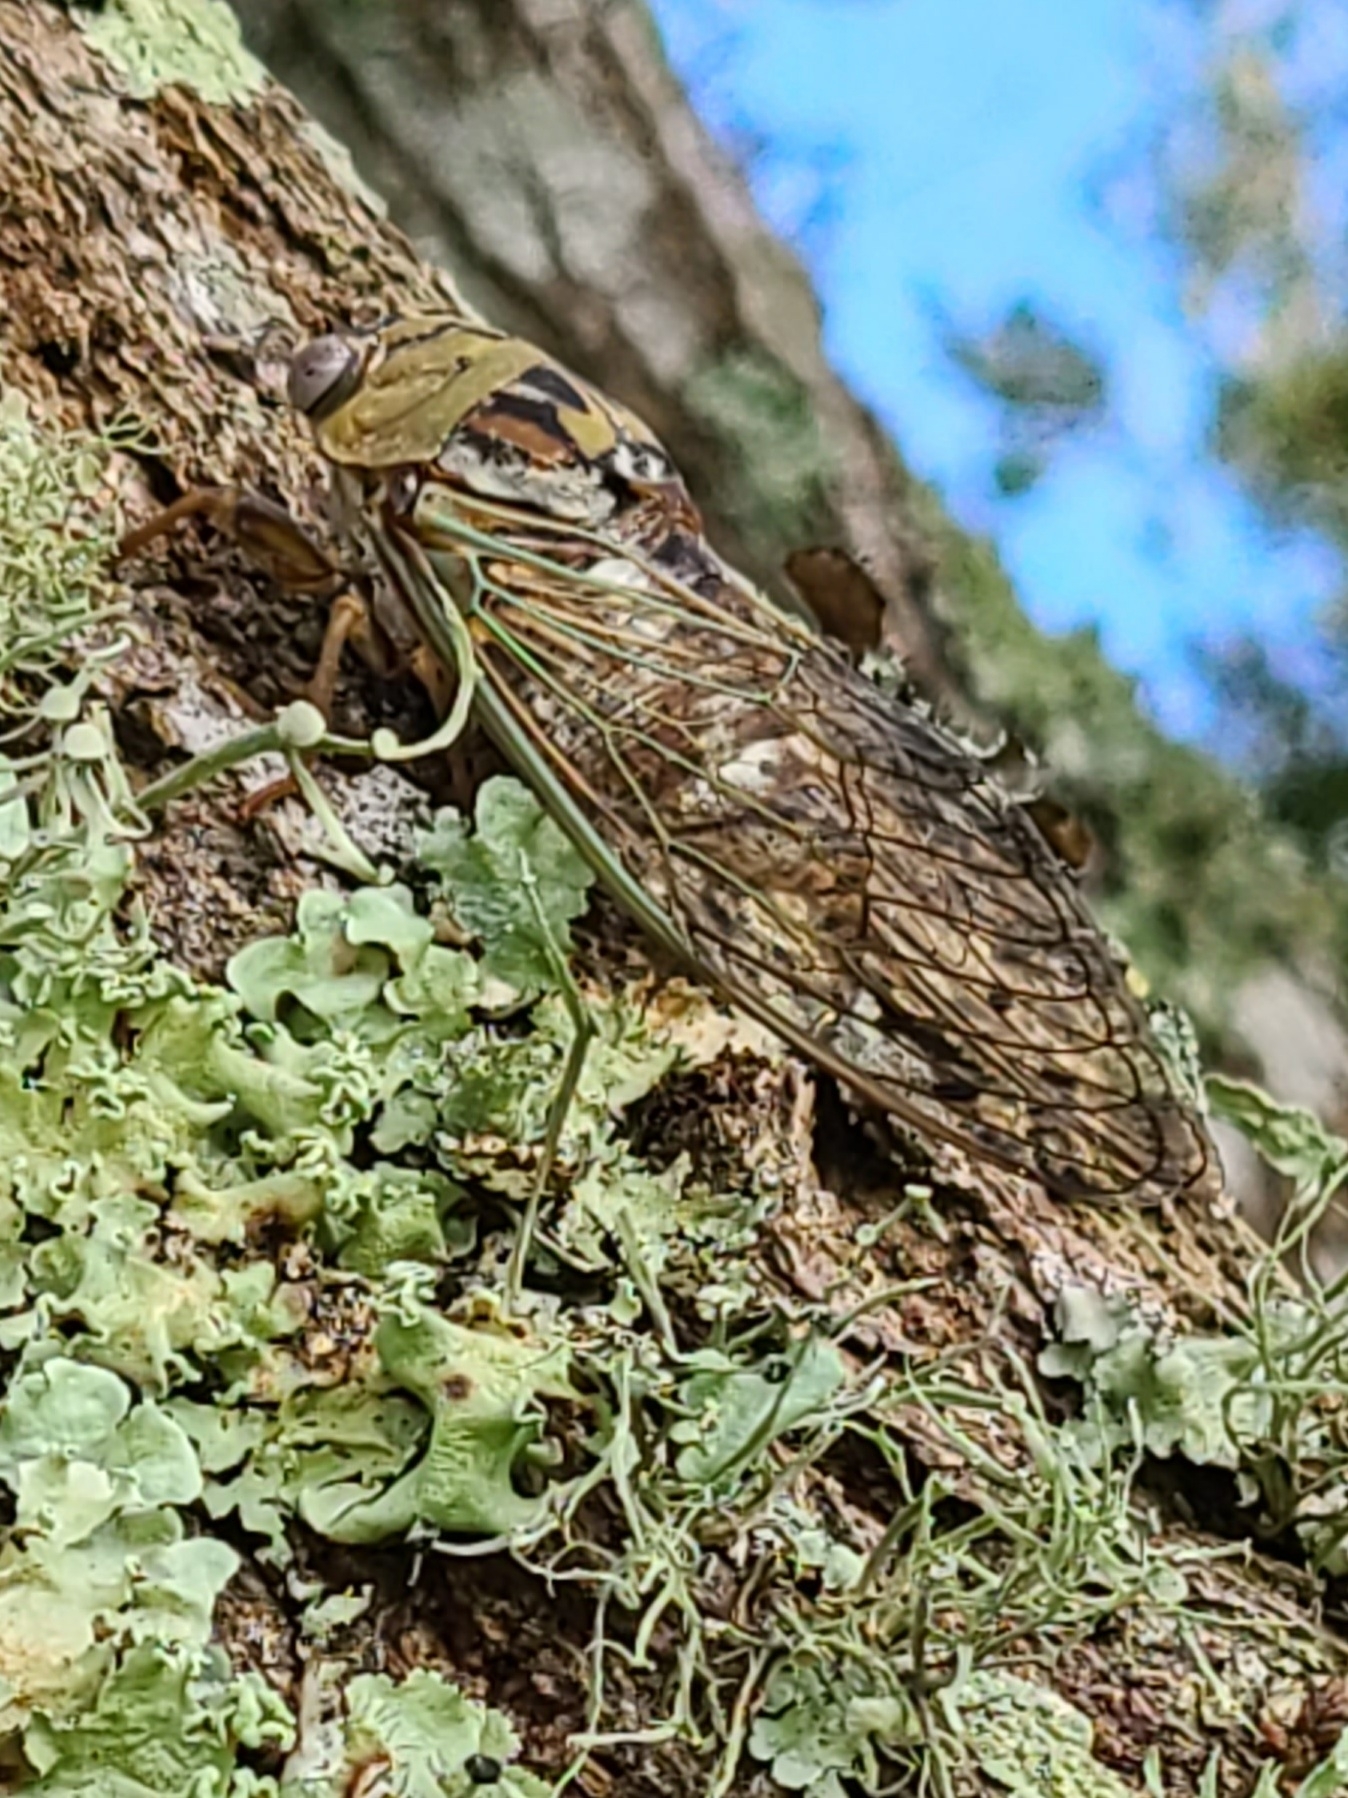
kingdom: Animalia
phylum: Arthropoda
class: Insecta
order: Hemiptera
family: Cicadidae
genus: Megatibicen
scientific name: Megatibicen resh
